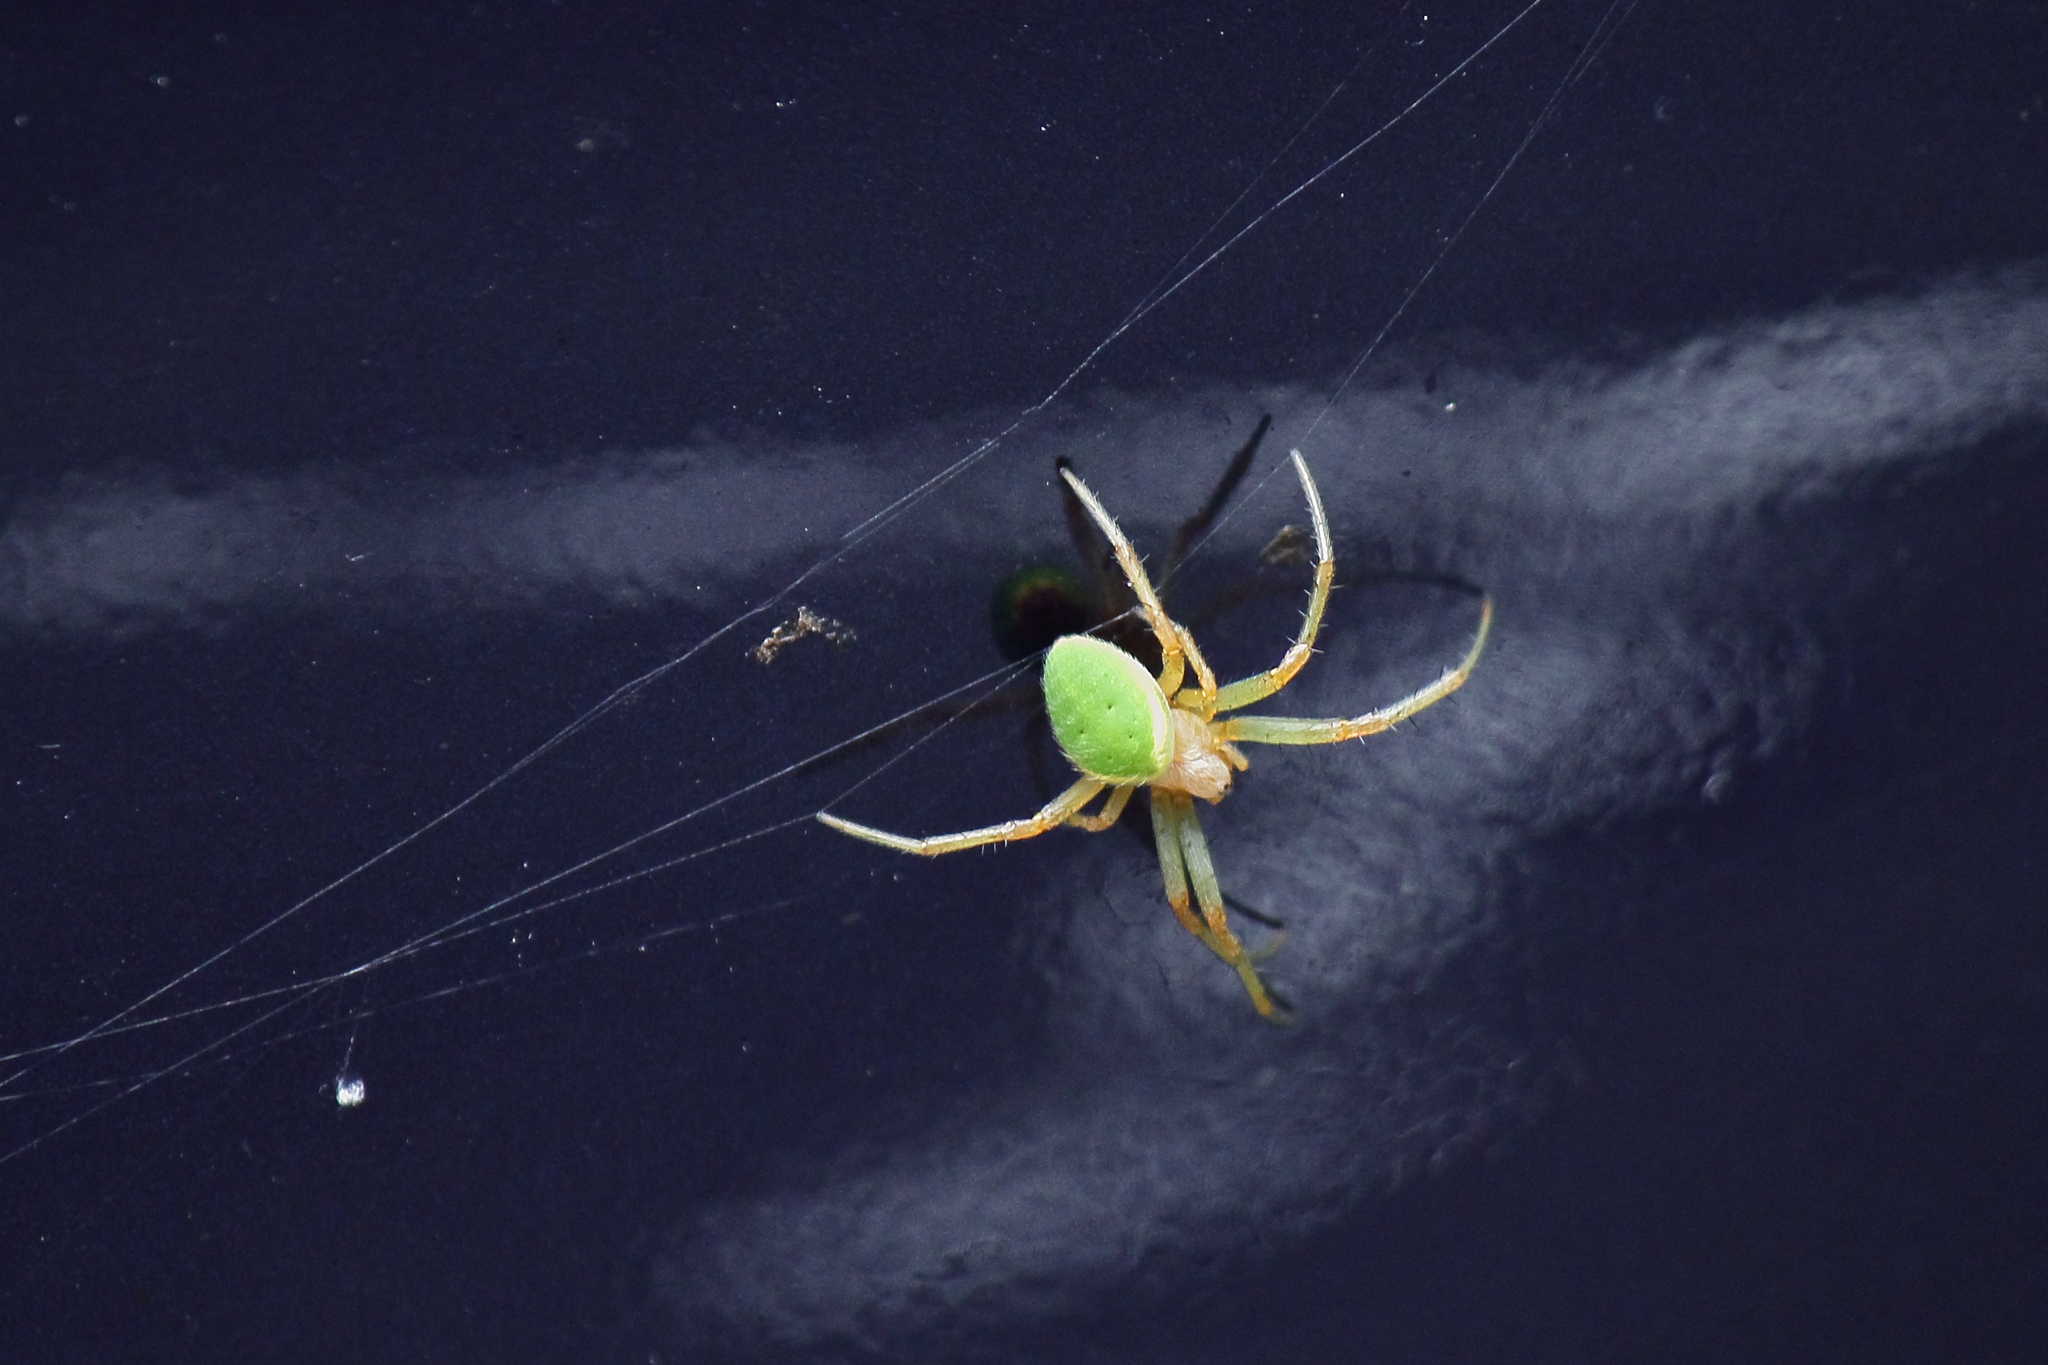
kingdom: Animalia
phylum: Arthropoda
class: Arachnida
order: Araneae
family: Araneidae
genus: Neoscona
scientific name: Neoscona scylloides
